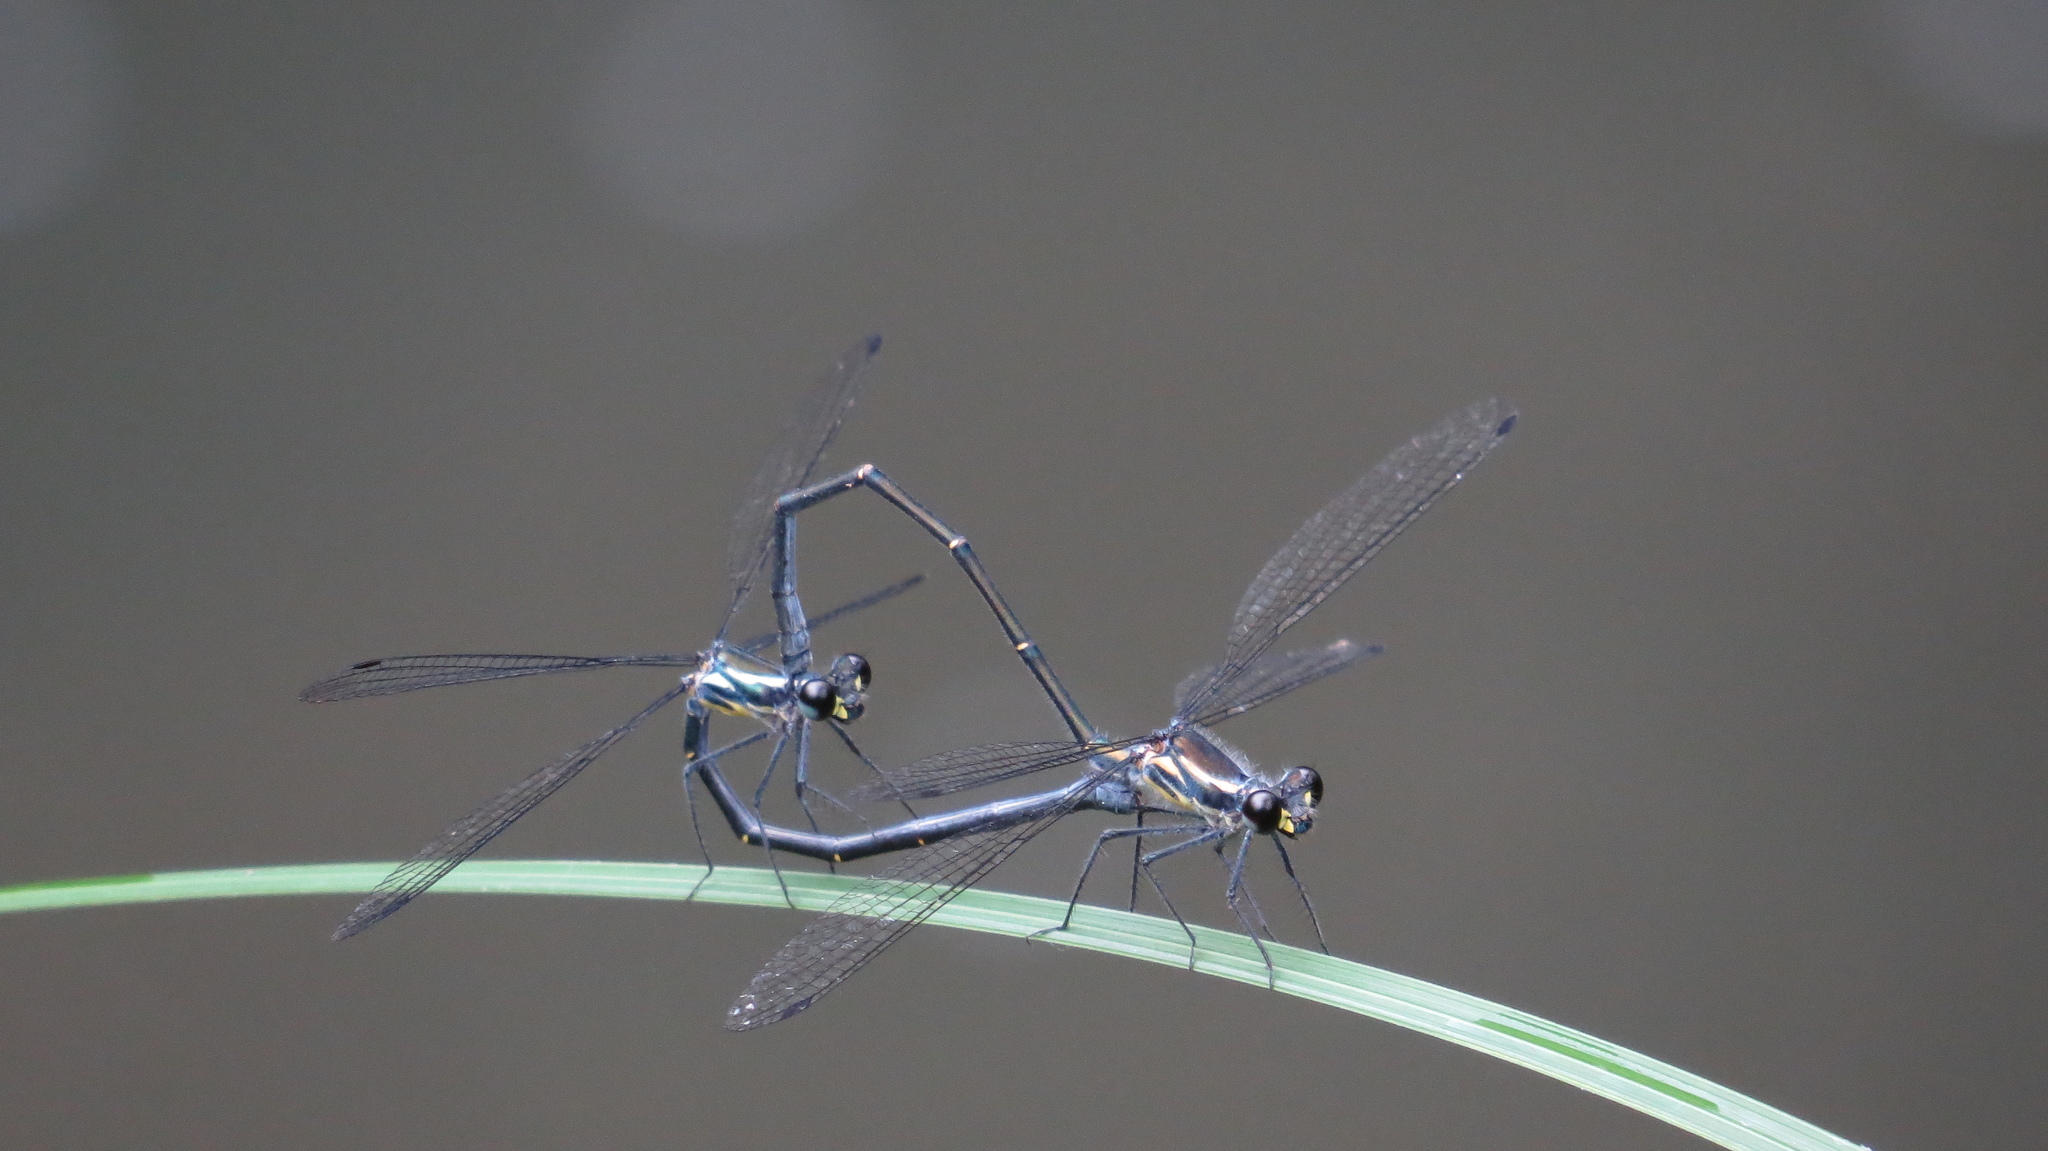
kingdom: Animalia
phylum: Arthropoda
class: Insecta
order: Odonata
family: Argiolestidae
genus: Austroargiolestes
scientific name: Austroargiolestes icteromelas
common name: Common flatwing
